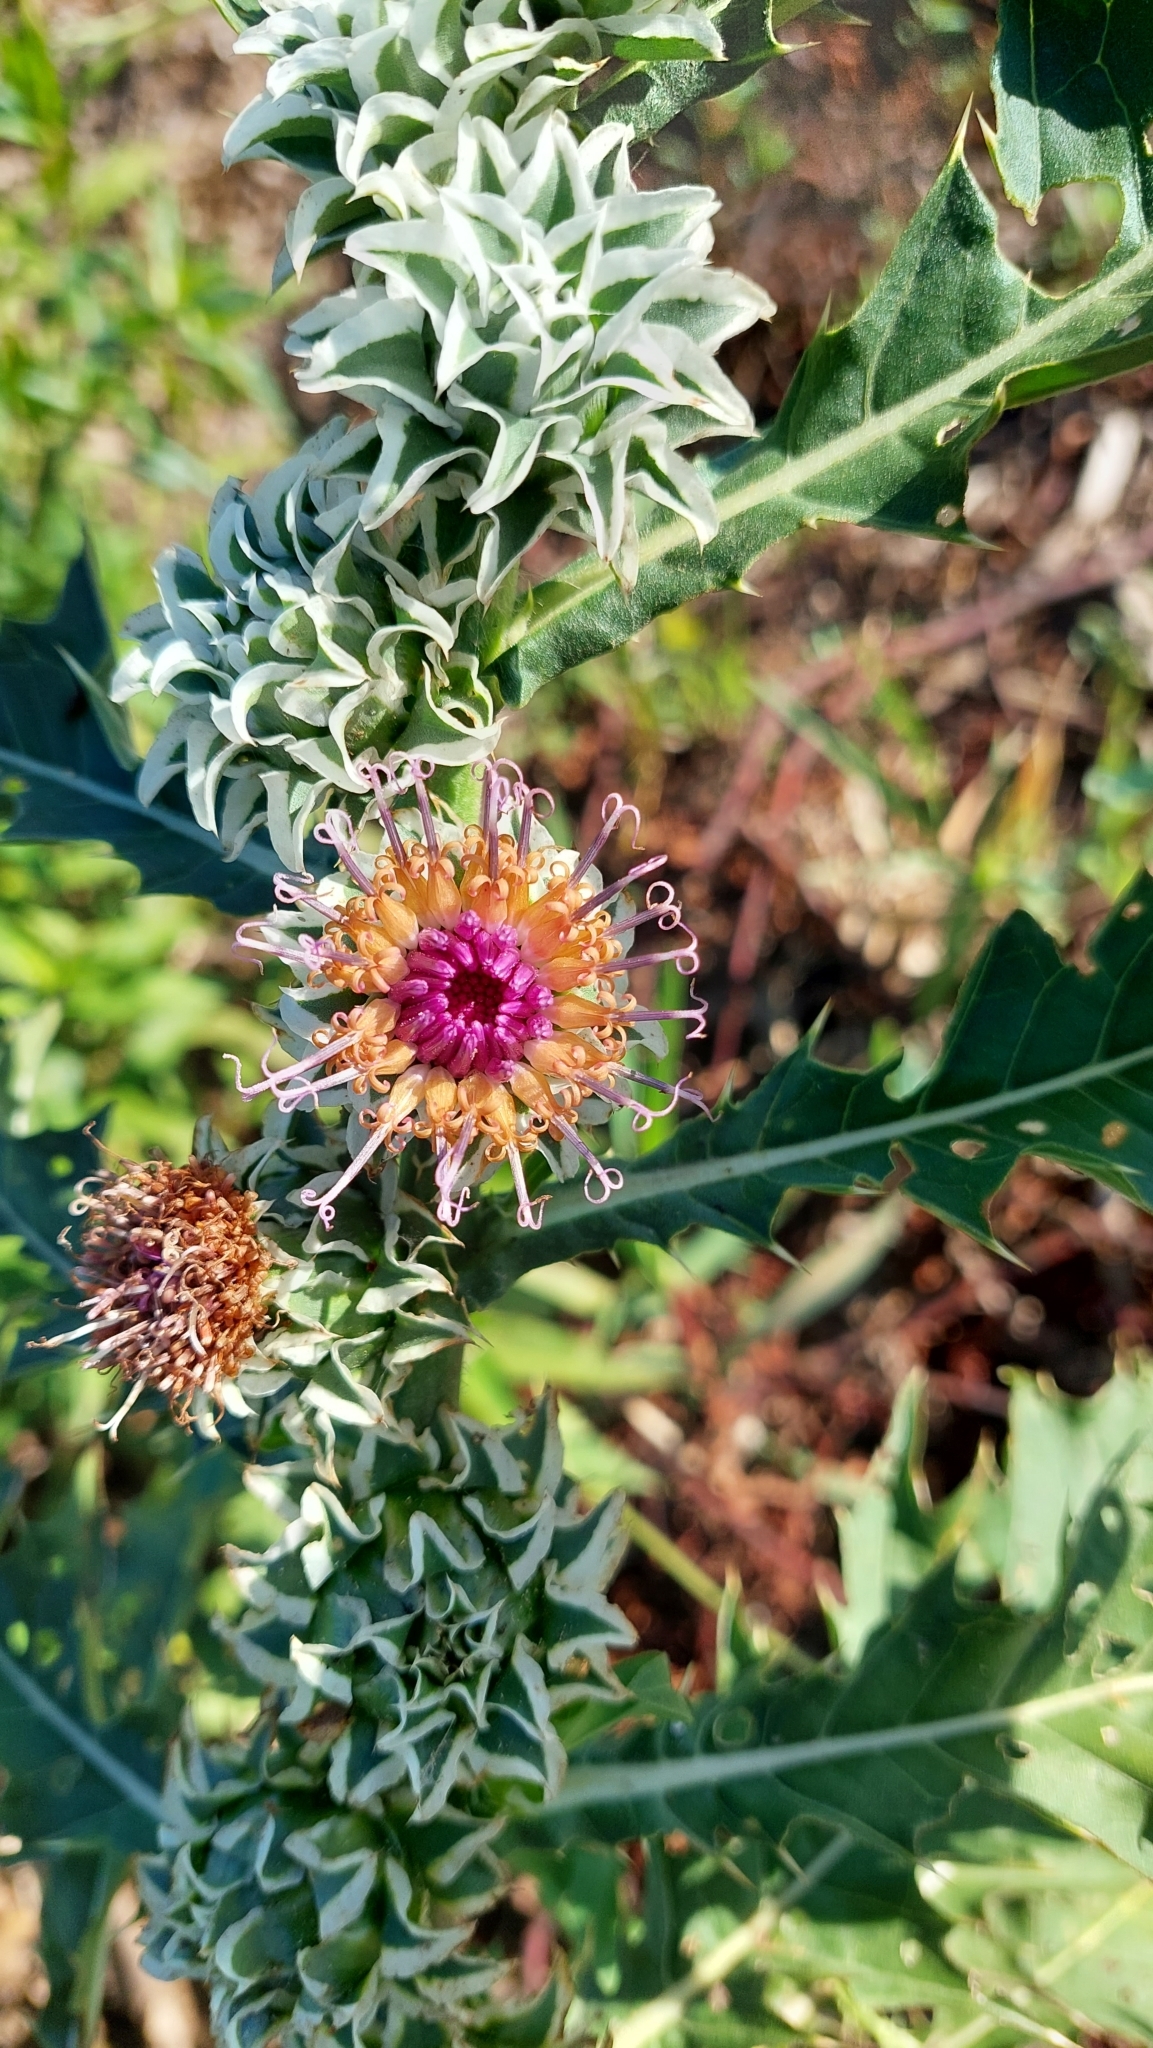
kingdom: Plantae
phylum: Tracheophyta
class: Magnoliopsida
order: Asterales
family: Asteraceae
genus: Pacourina
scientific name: Pacourina edulis
